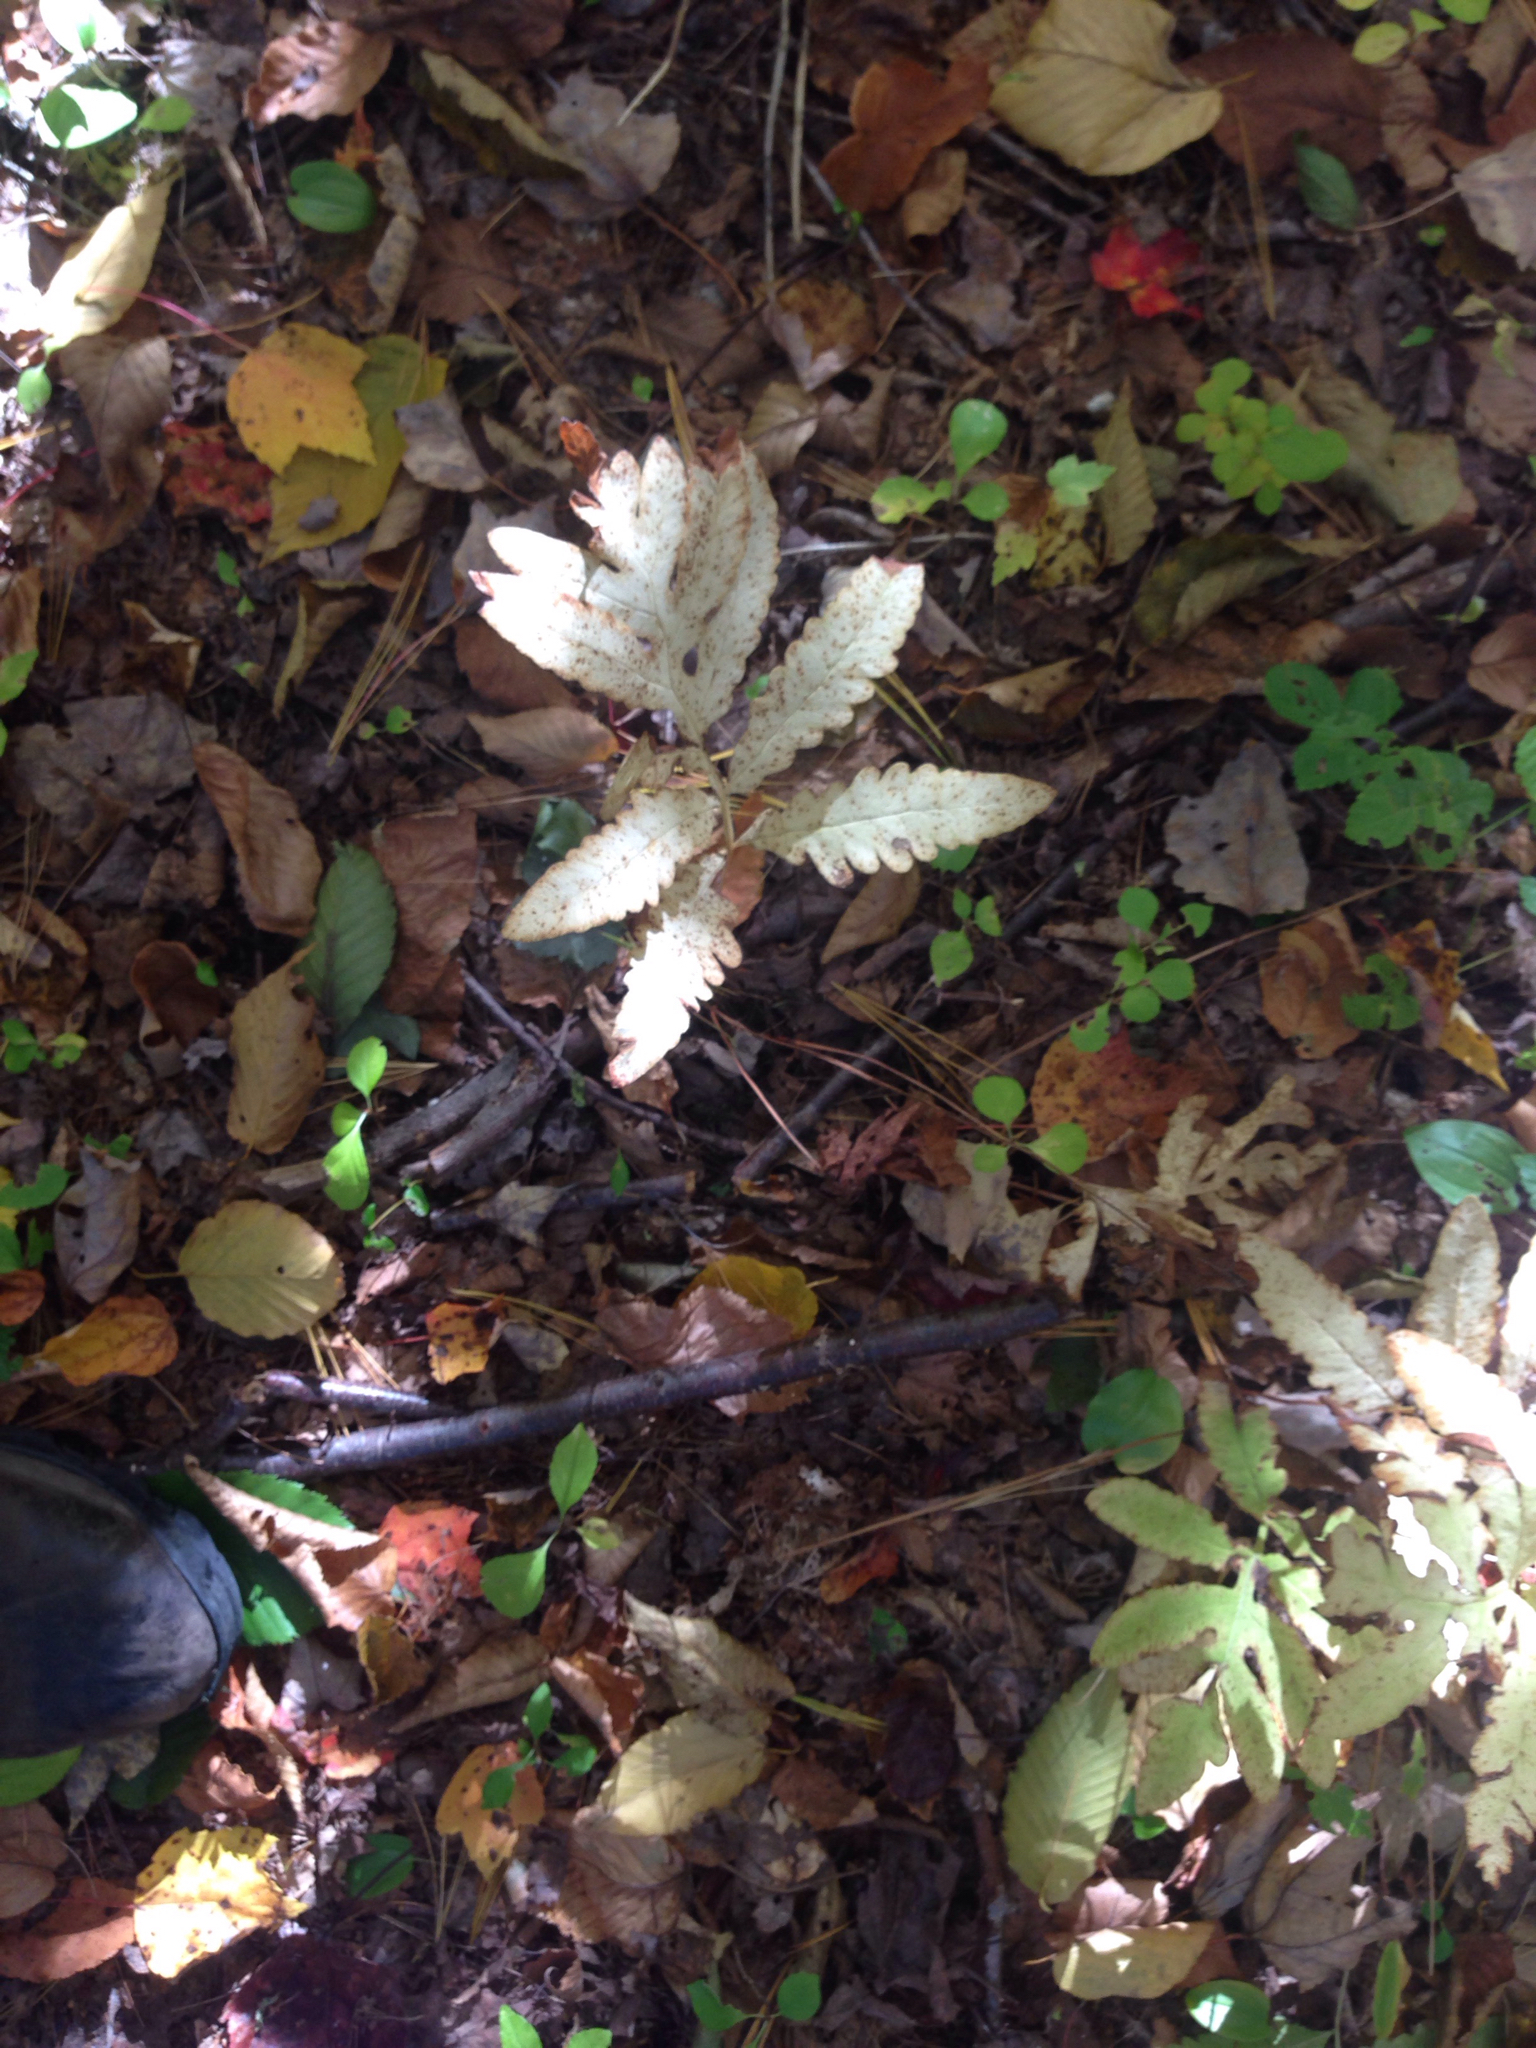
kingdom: Plantae
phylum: Tracheophyta
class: Polypodiopsida
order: Polypodiales
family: Onocleaceae
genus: Onoclea
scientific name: Onoclea sensibilis
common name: Sensitive fern
